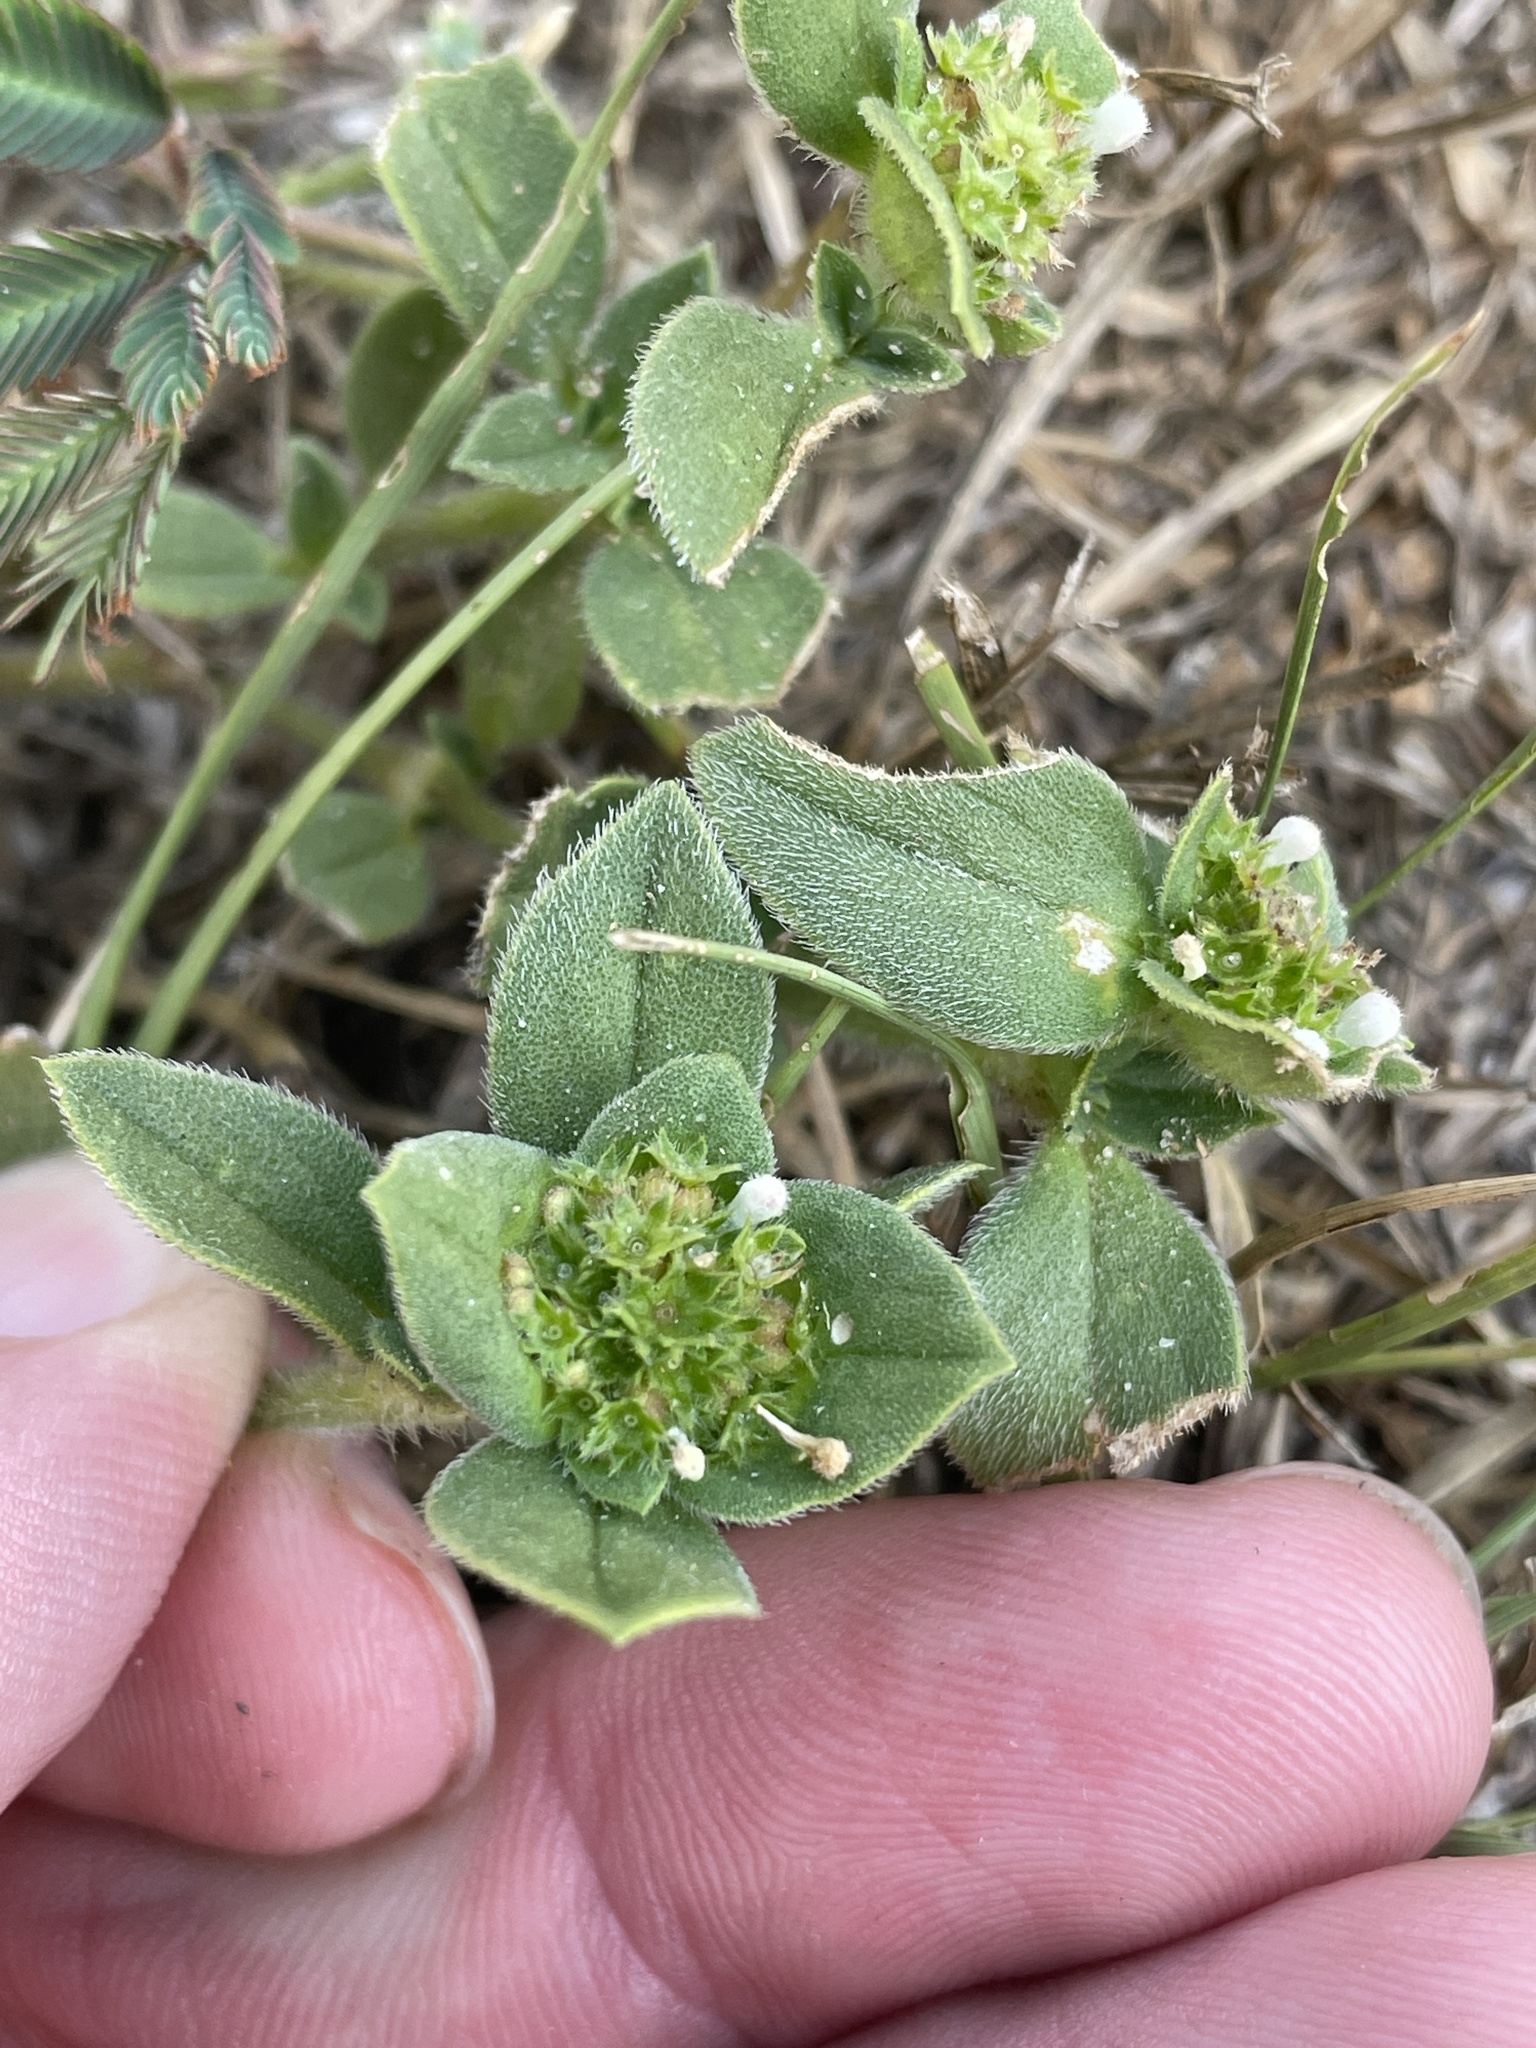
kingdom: Plantae
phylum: Tracheophyta
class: Magnoliopsida
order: Gentianales
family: Rubiaceae
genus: Richardia
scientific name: Richardia brasiliensis
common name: Tropical mexican clover
